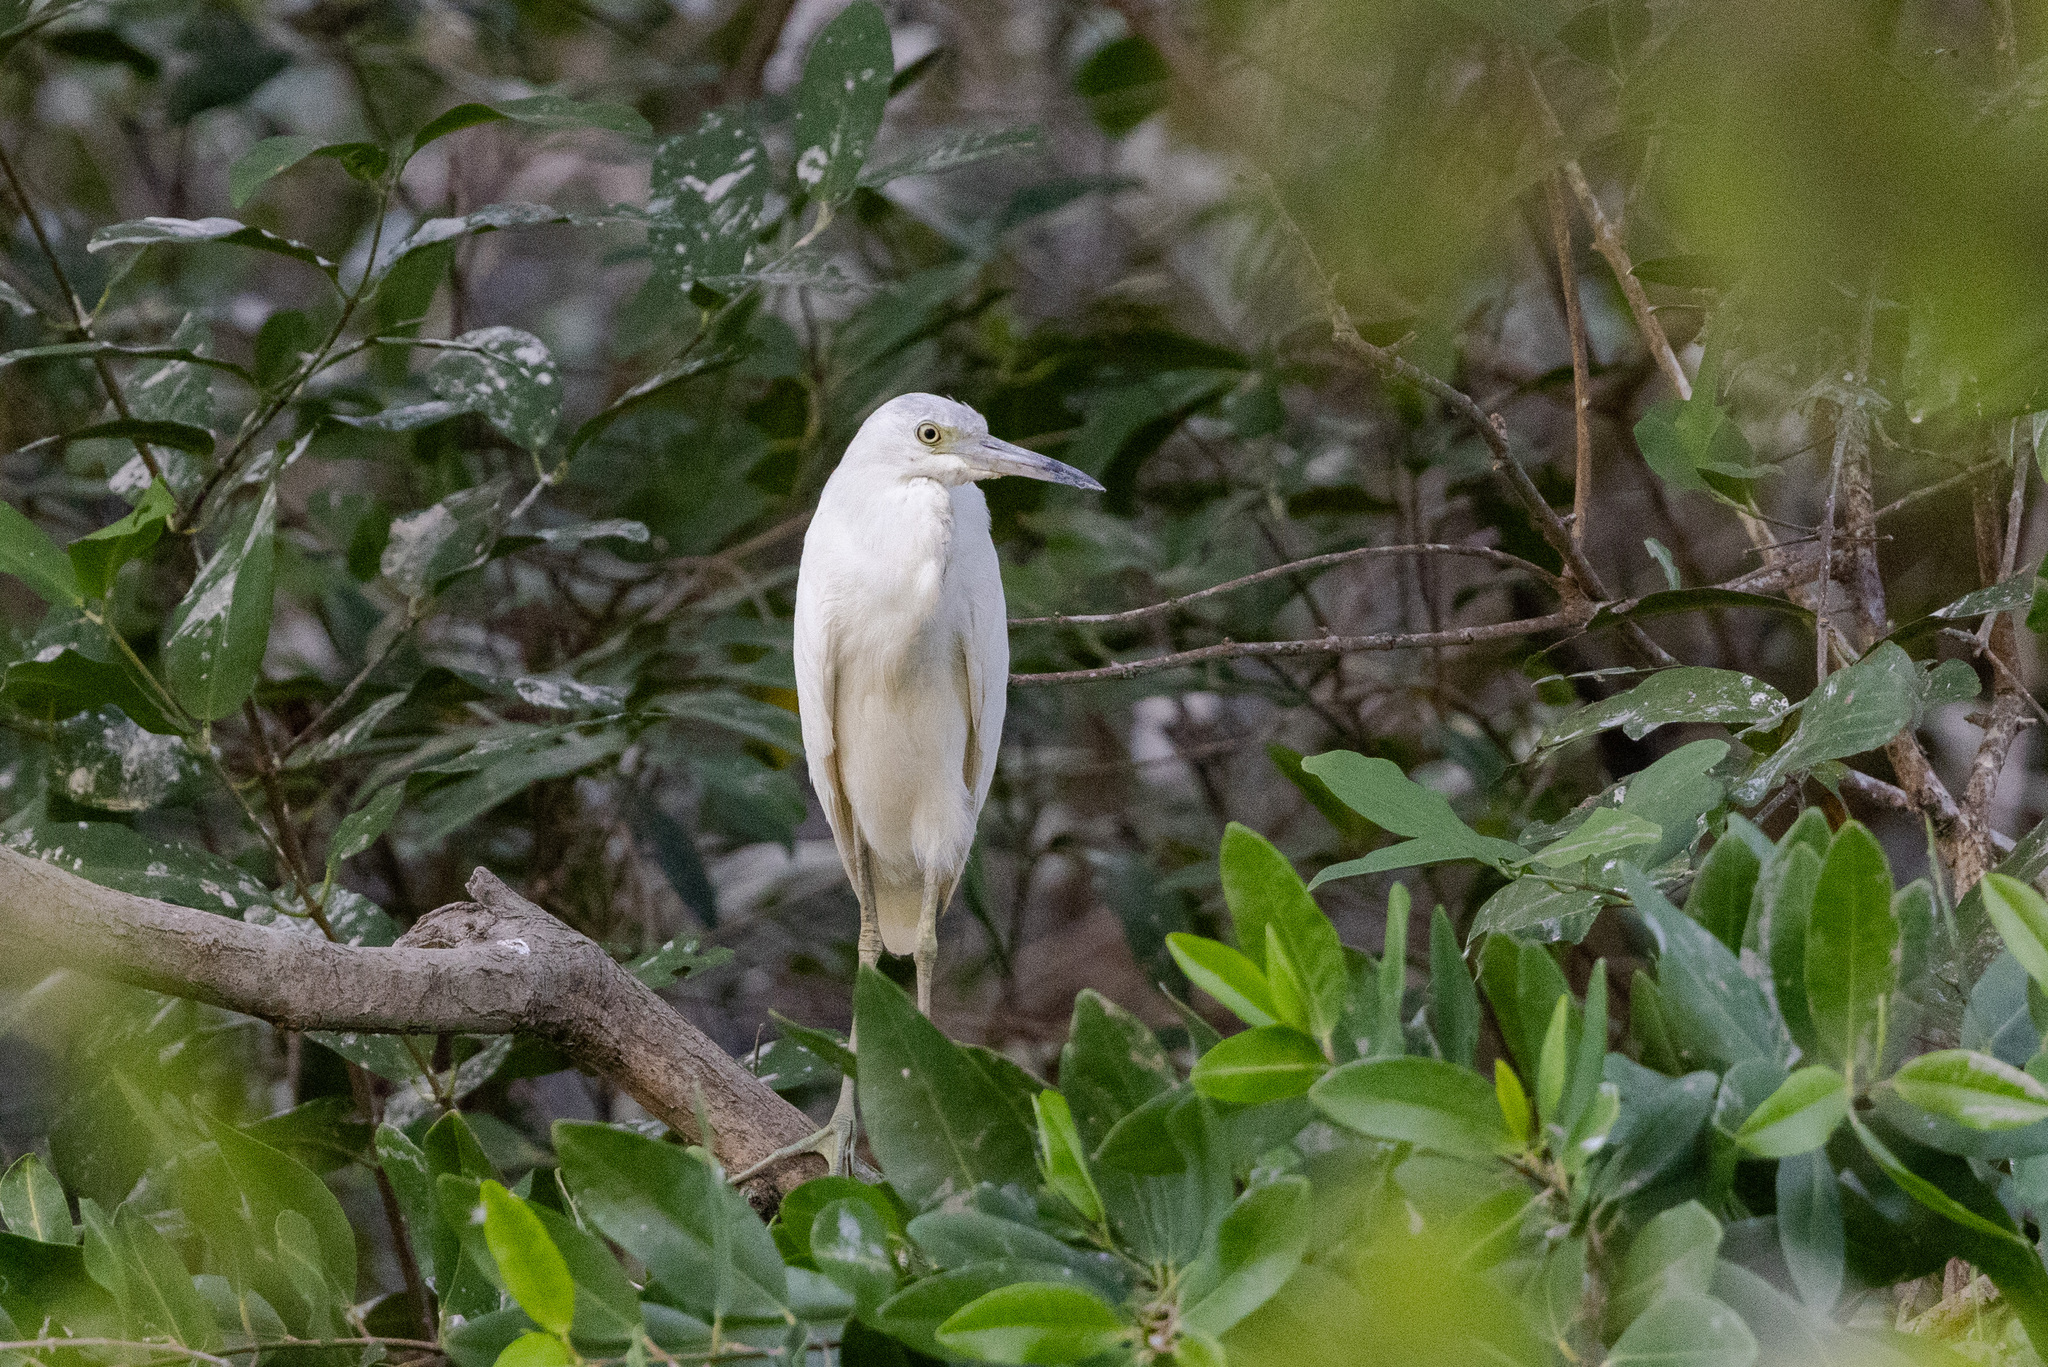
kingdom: Animalia
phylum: Chordata
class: Aves
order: Pelecaniformes
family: Ardeidae
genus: Egretta
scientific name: Egretta caerulea
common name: Little blue heron
